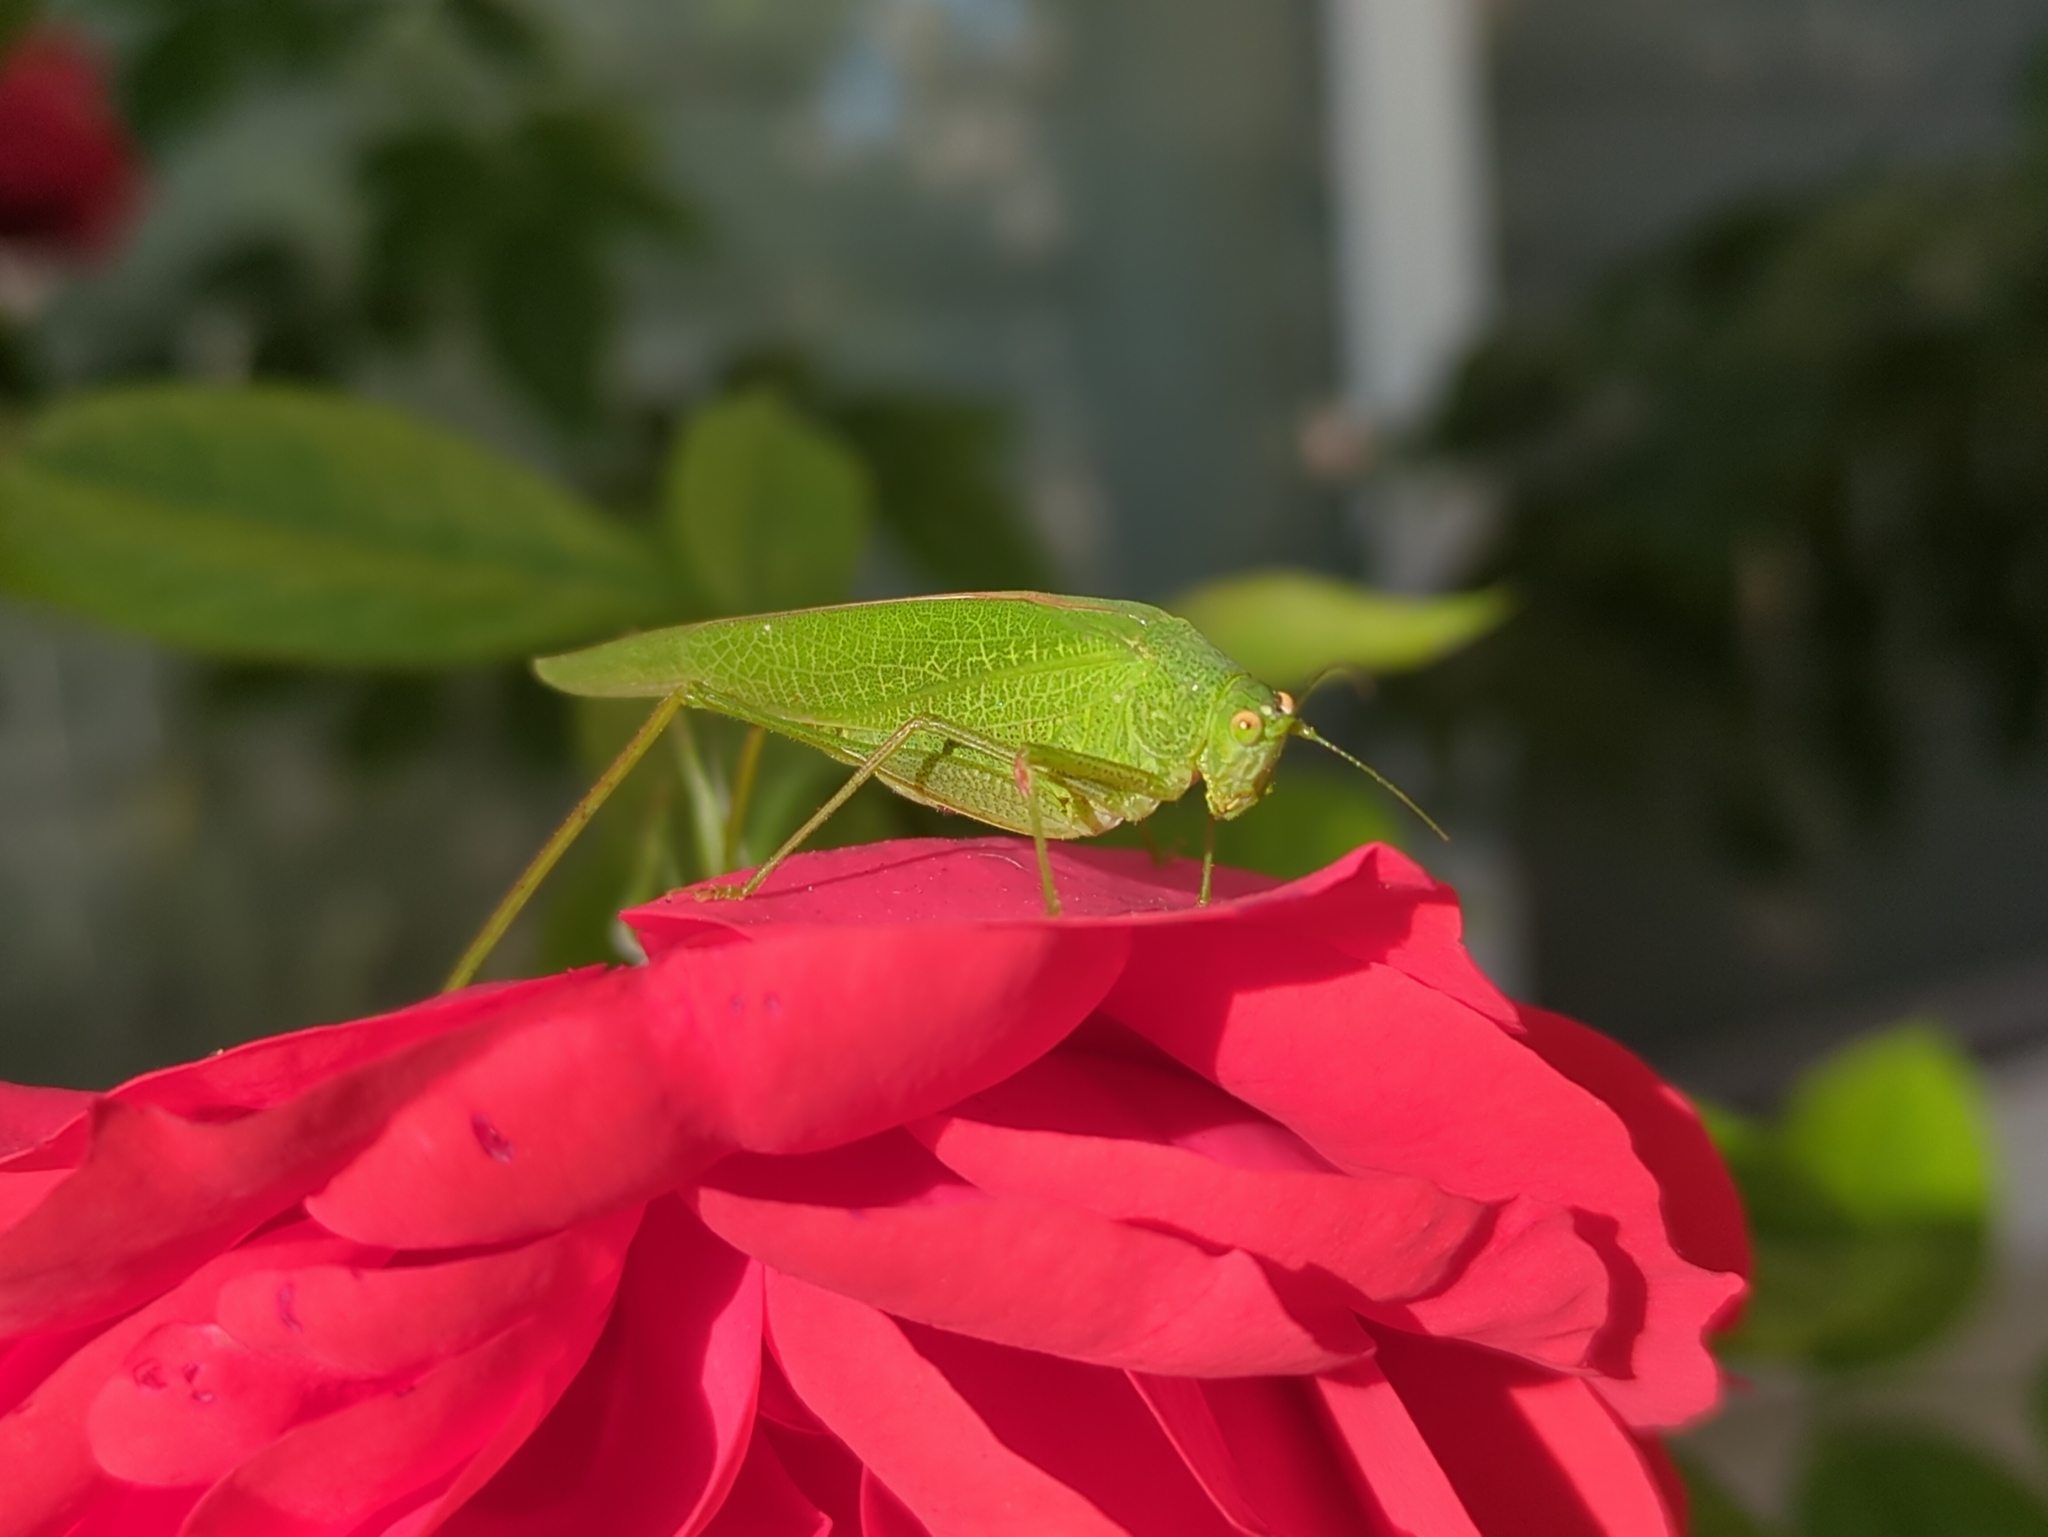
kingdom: Animalia
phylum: Arthropoda
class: Insecta
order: Orthoptera
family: Tettigoniidae
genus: Phaneroptera
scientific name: Phaneroptera nana
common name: Southern sickle bush-cricket
